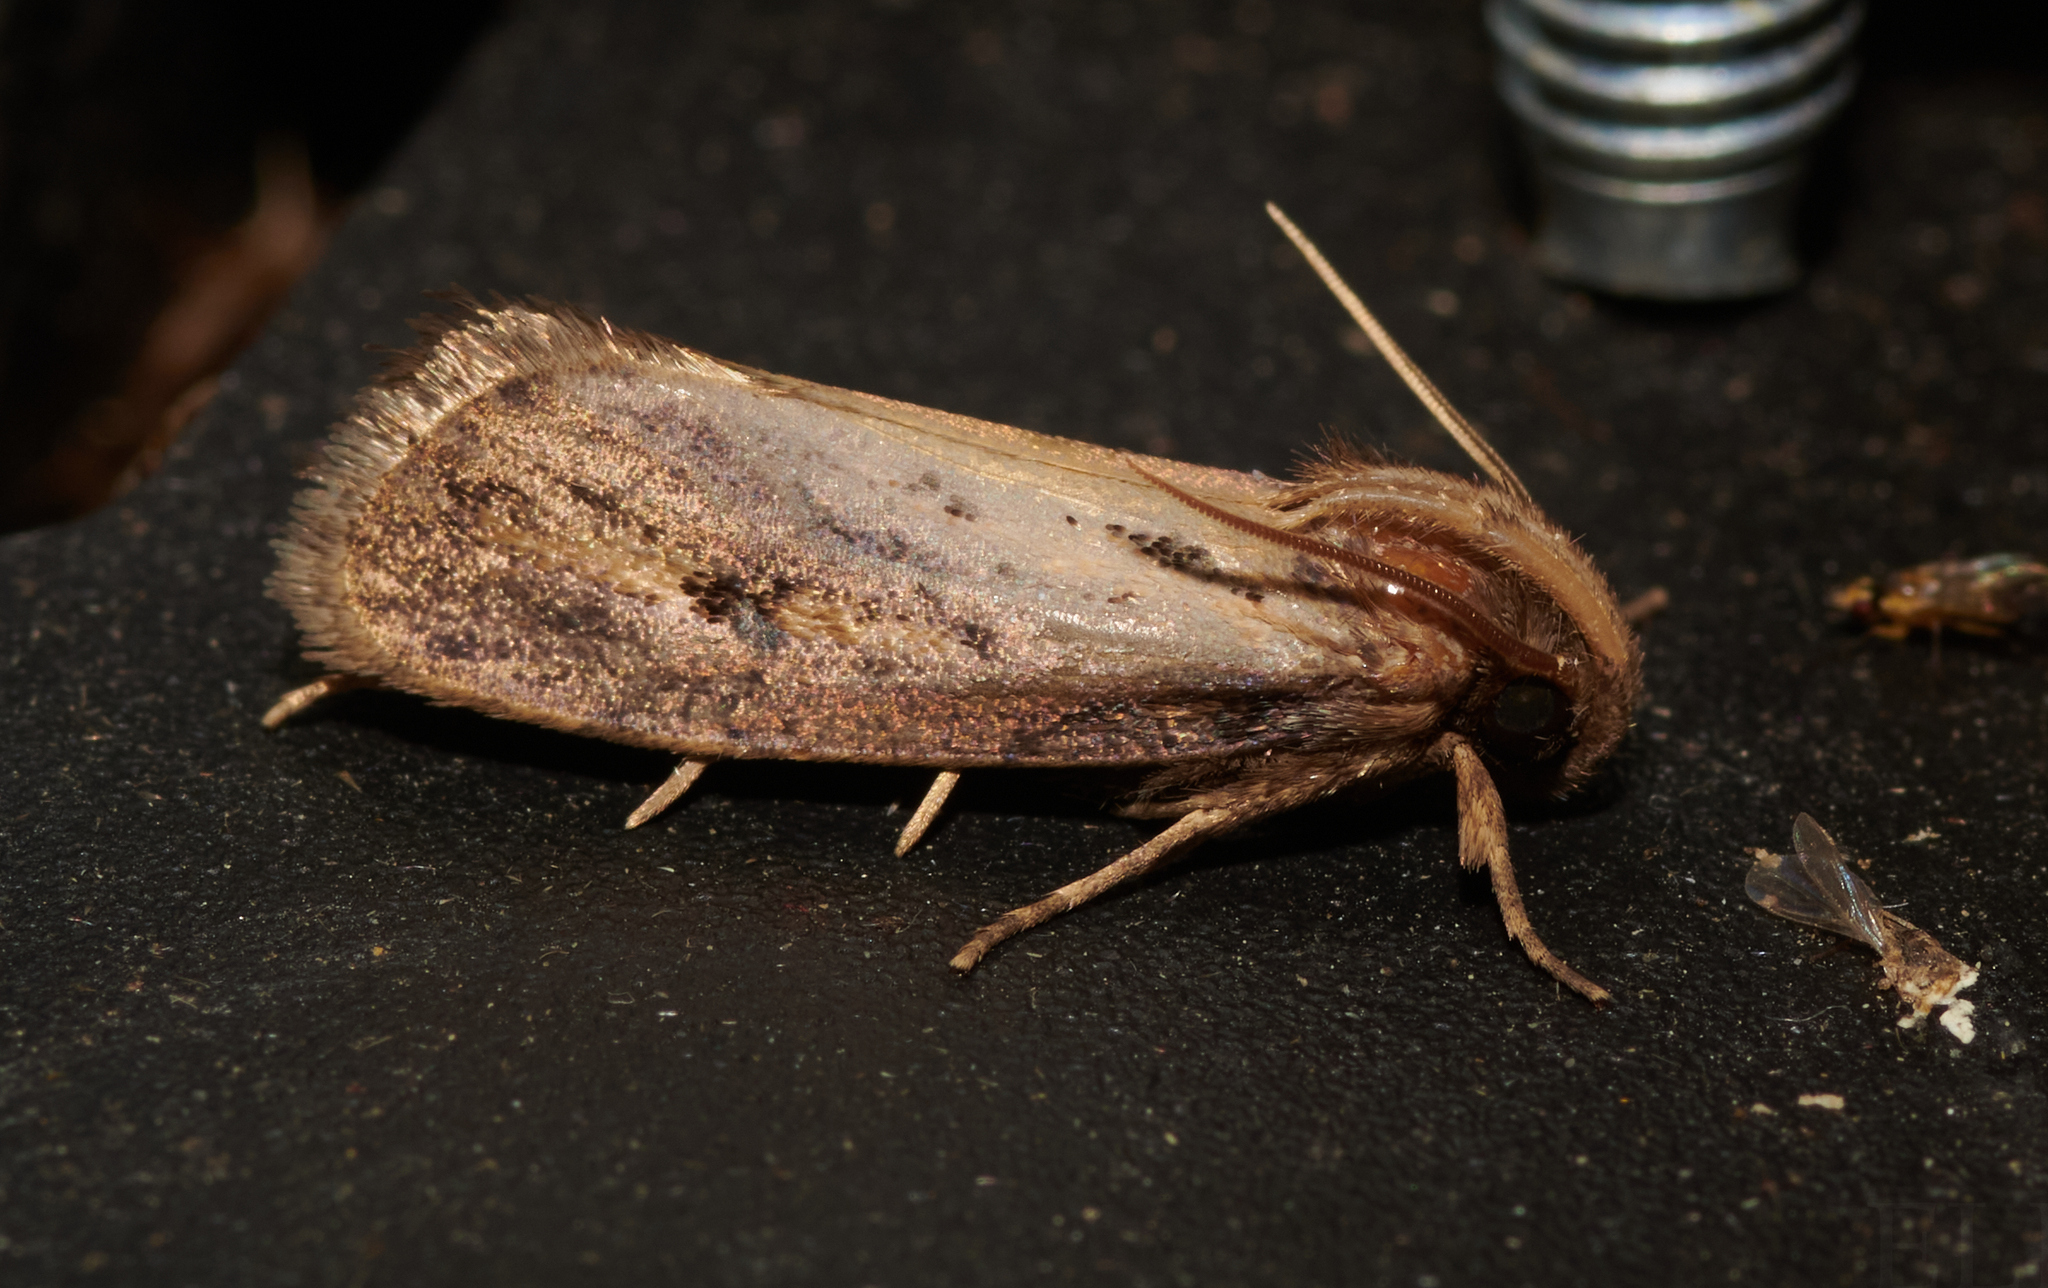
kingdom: Animalia
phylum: Arthropoda
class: Insecta
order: Lepidoptera
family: Tineidae
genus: Acrolophus
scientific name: Acrolophus popeanella
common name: Clemens' grass tubeworm moth
